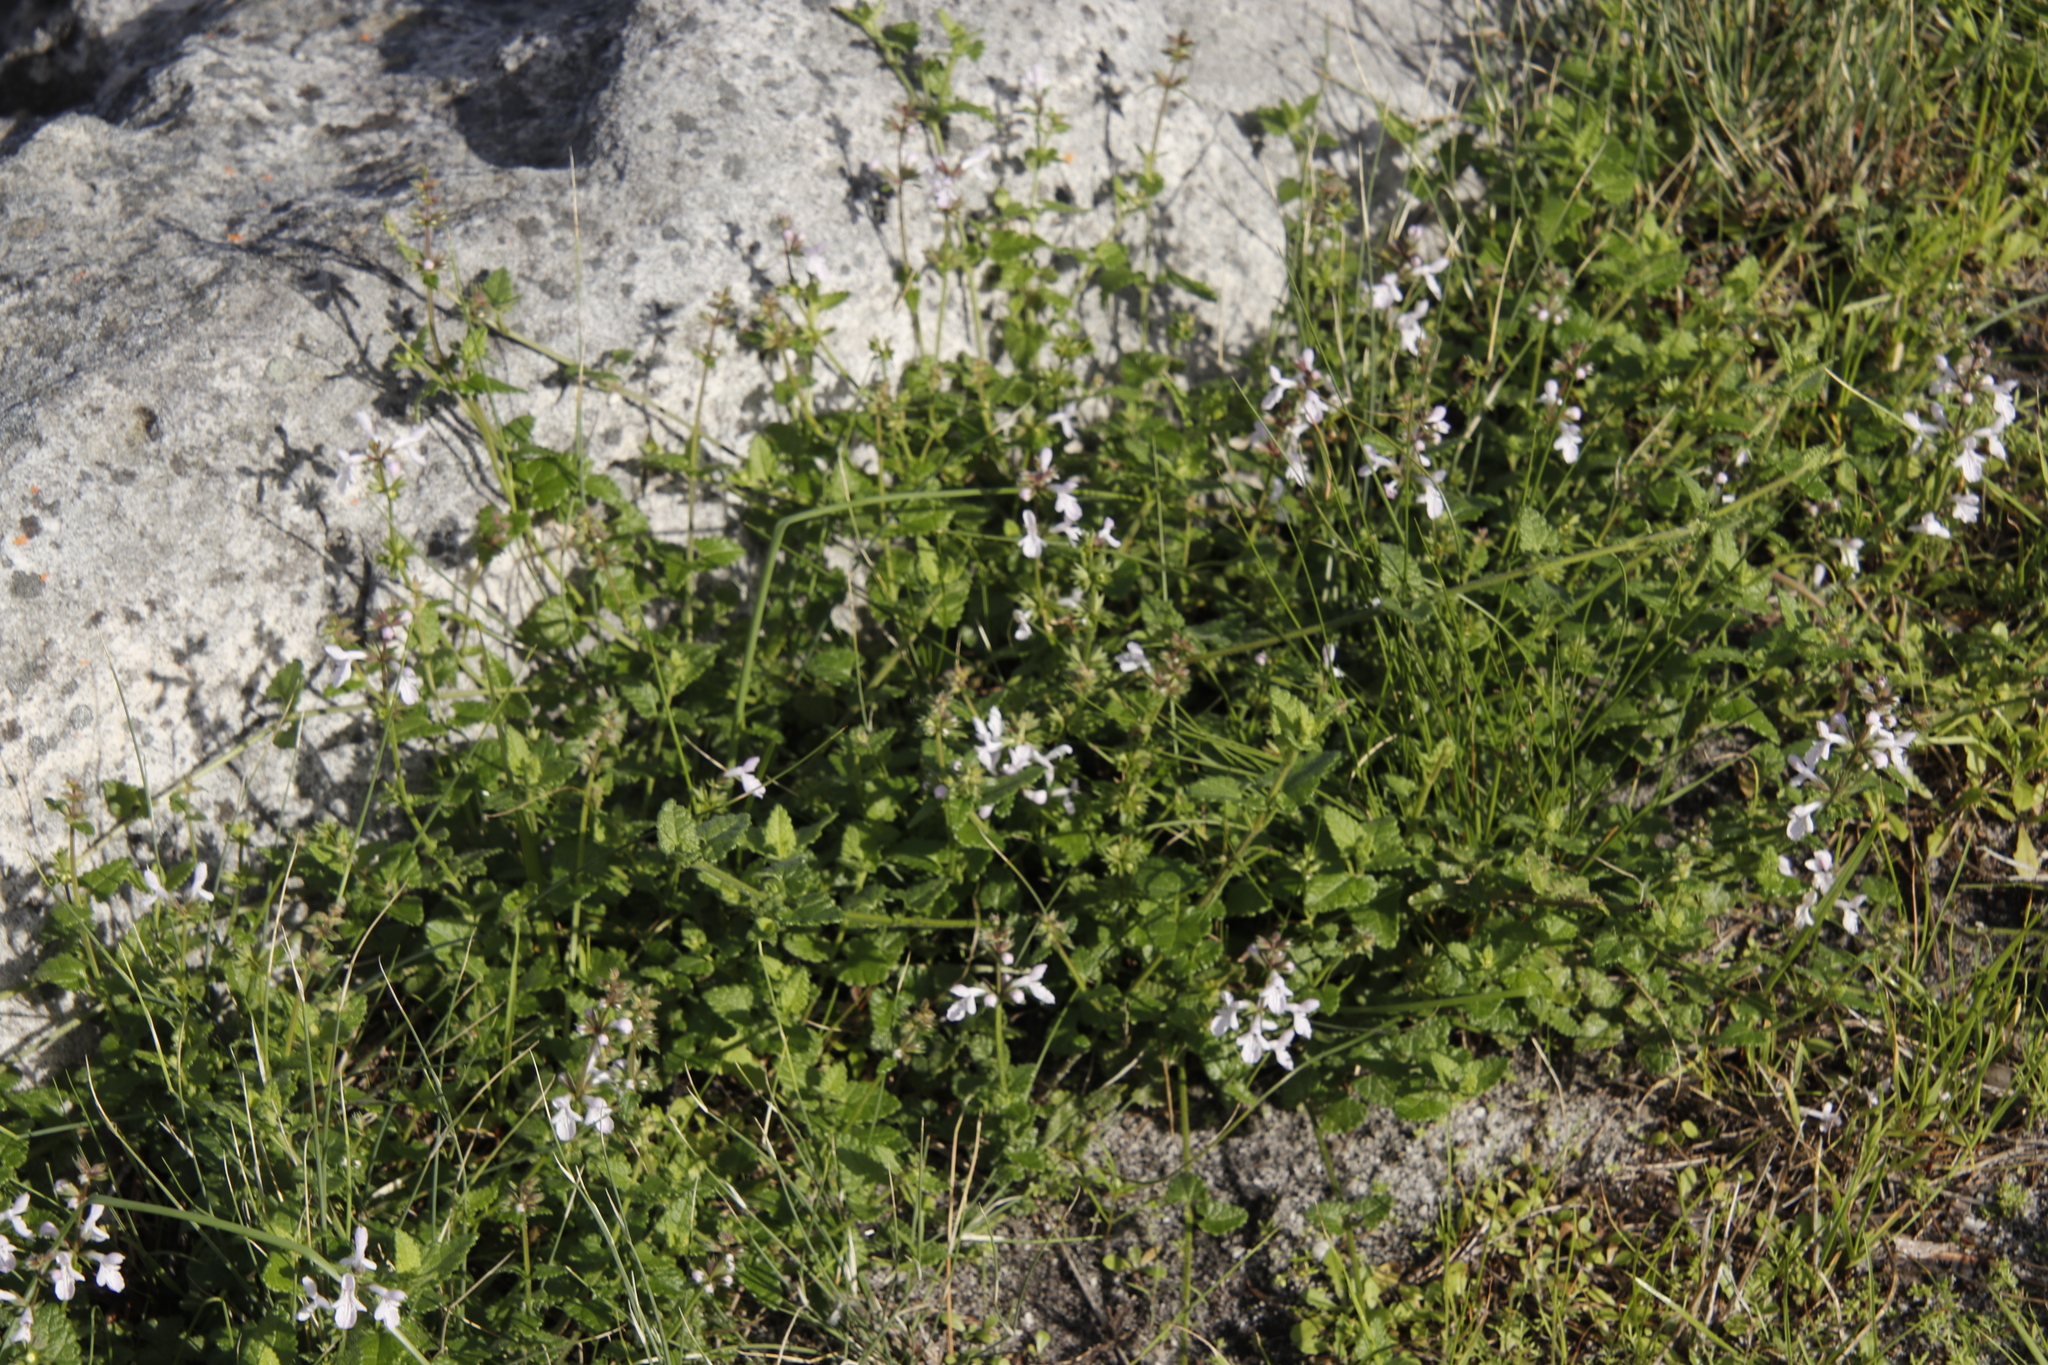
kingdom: Plantae
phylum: Tracheophyta
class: Magnoliopsida
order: Lamiales
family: Lamiaceae
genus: Stachys
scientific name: Stachys aethiopica
